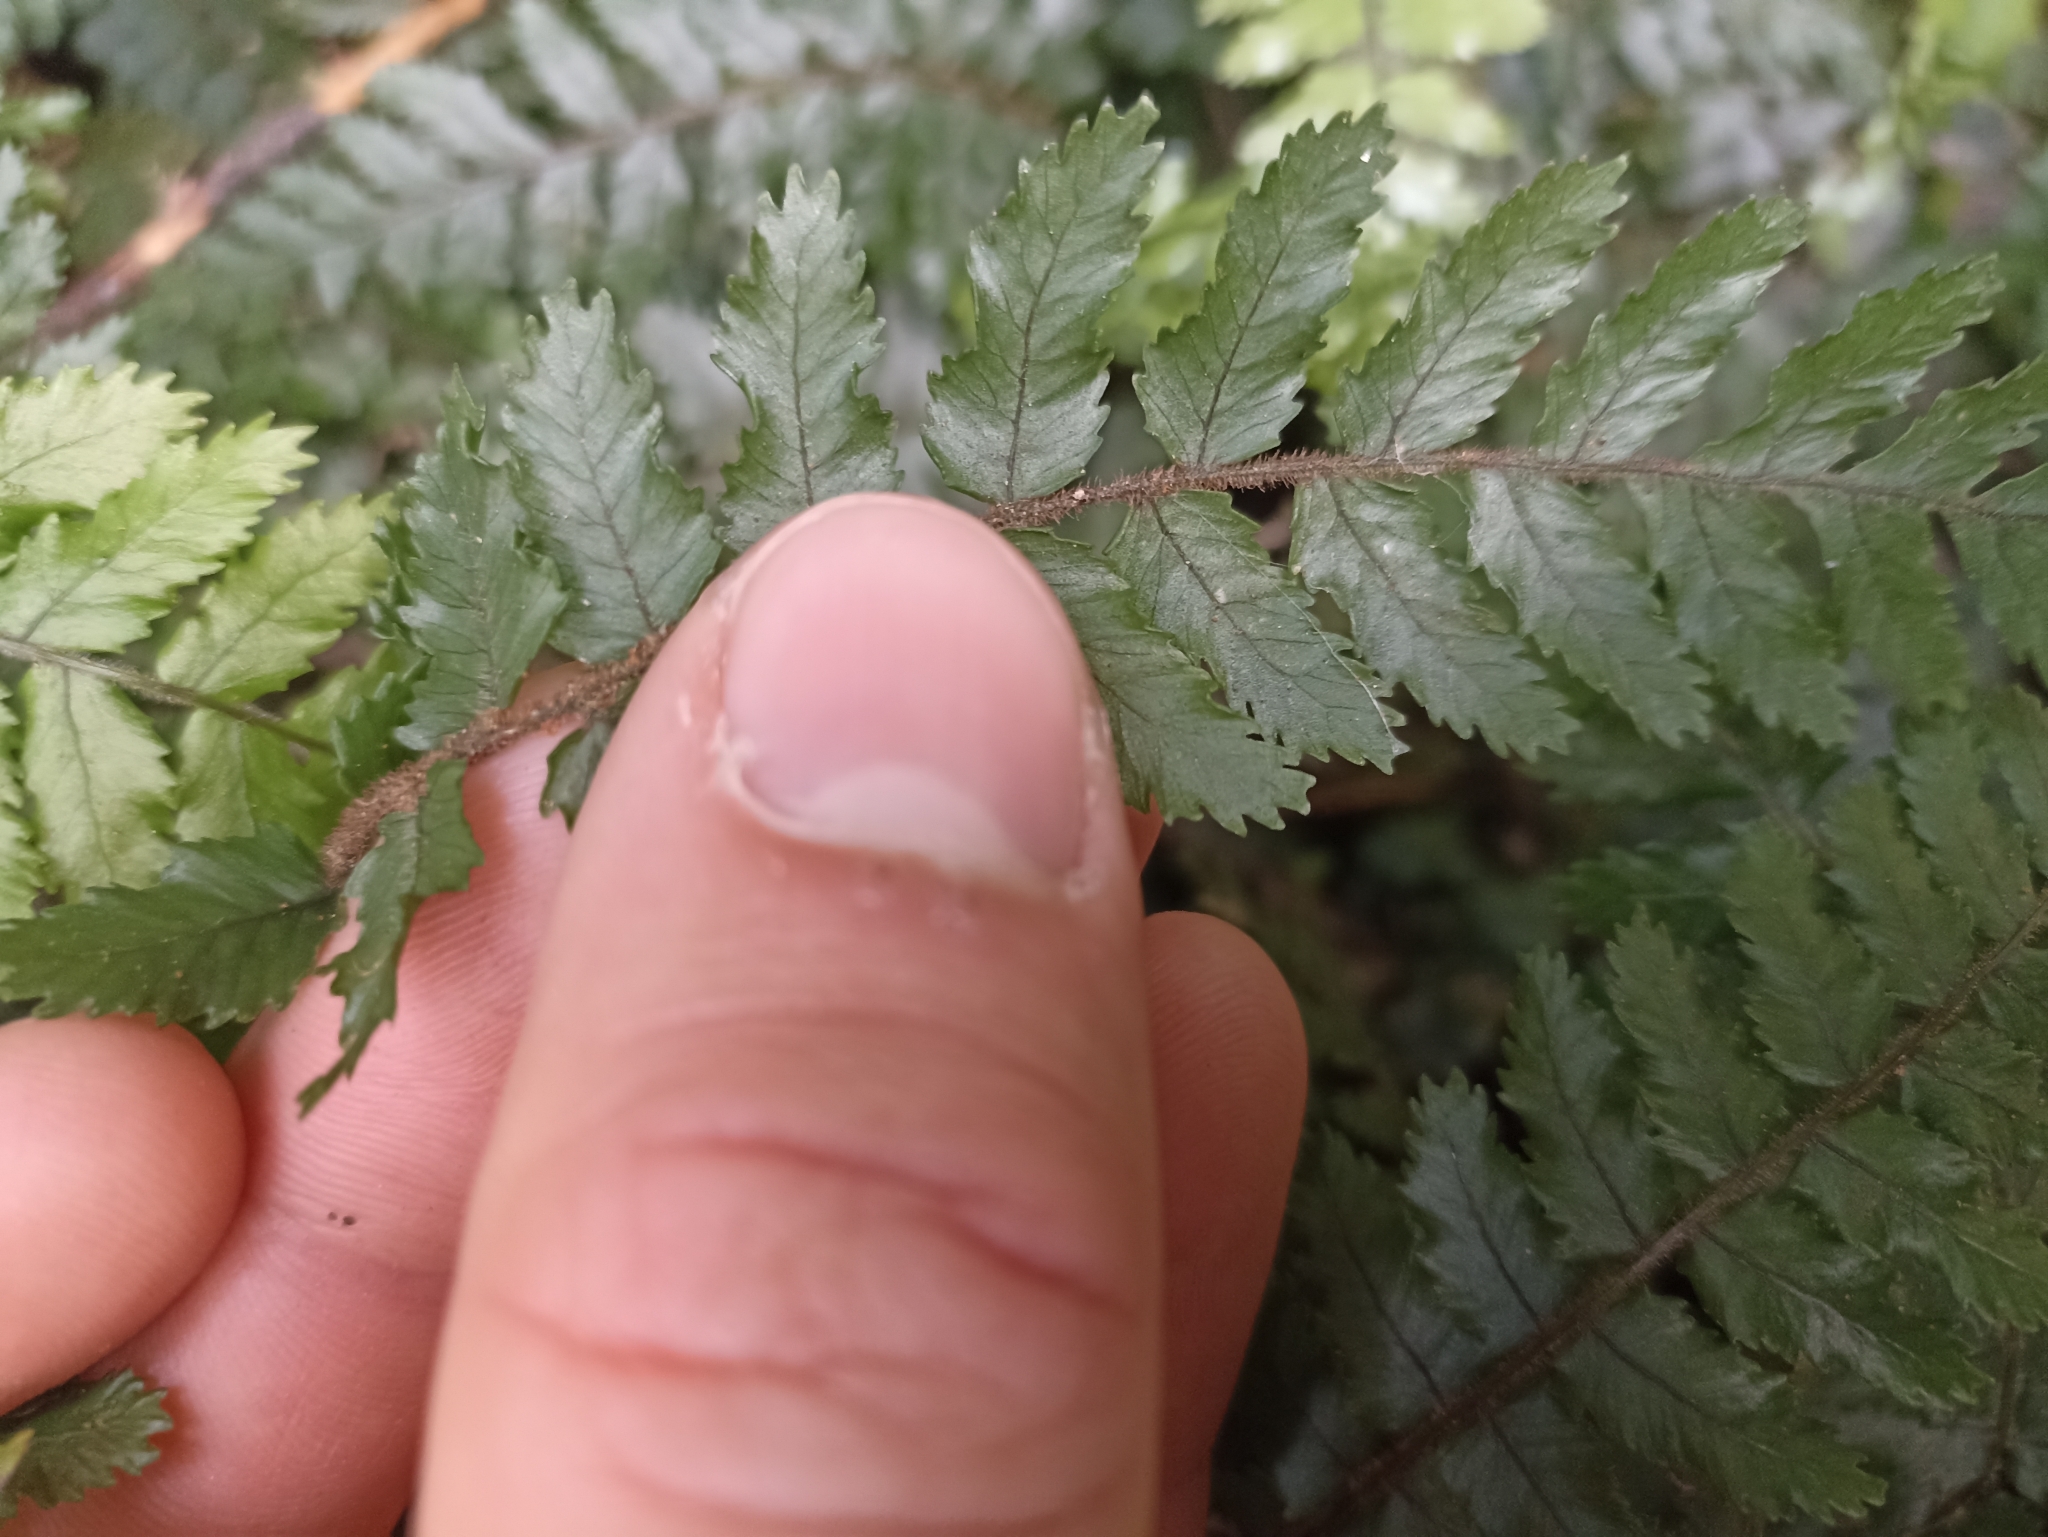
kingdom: Plantae
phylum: Tracheophyta
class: Polypodiopsida
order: Polypodiales
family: Blechnaceae
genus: Icarus
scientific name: Icarus filiformis
